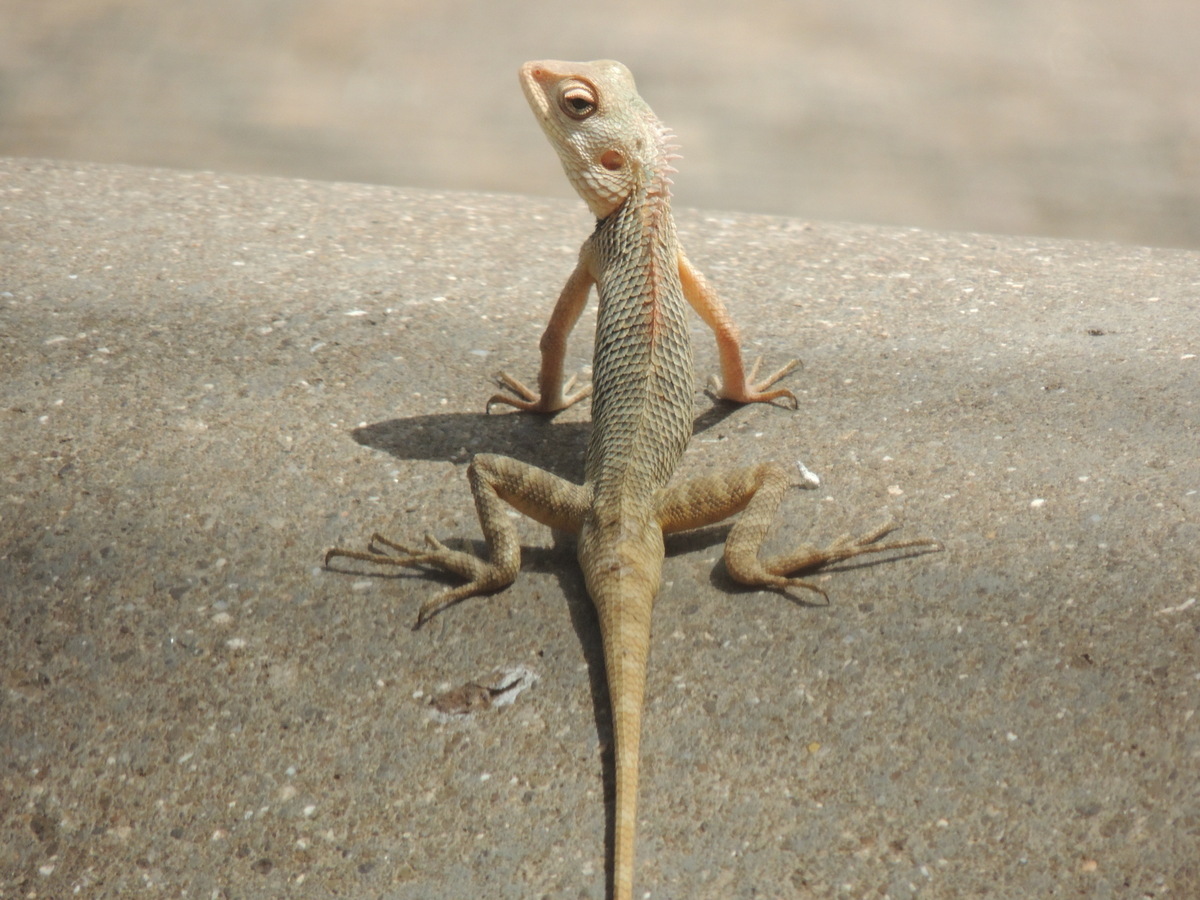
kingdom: Animalia
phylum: Chordata
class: Squamata
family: Agamidae
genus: Calotes
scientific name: Calotes versicolor
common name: Oriental garden lizard
